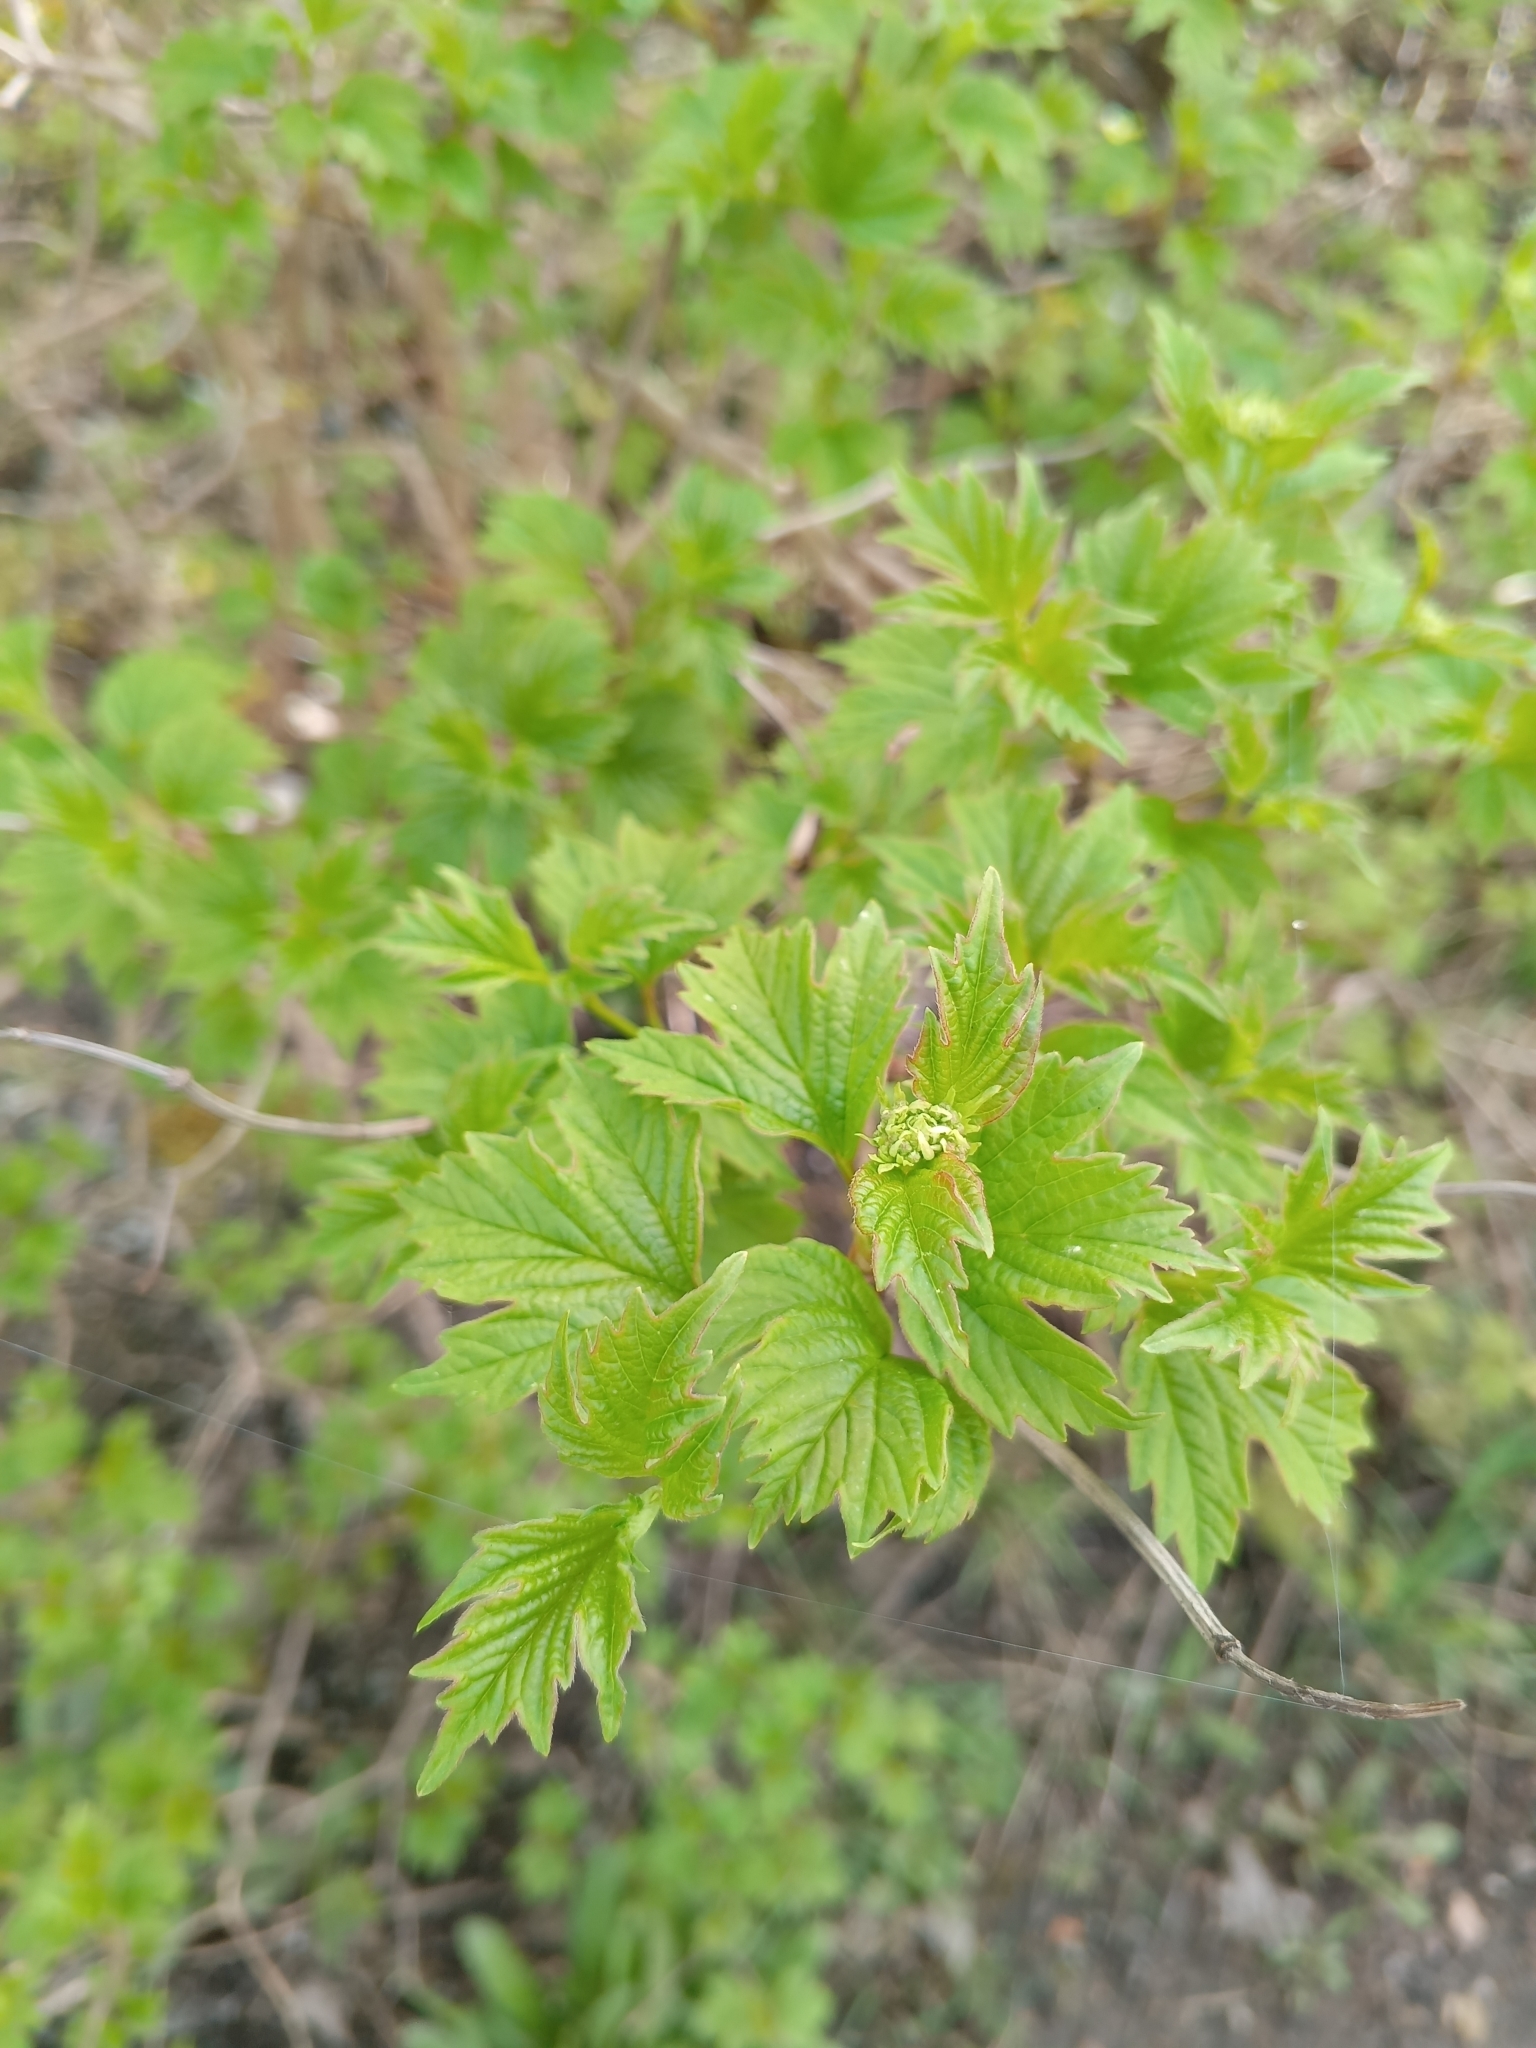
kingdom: Plantae
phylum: Tracheophyta
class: Magnoliopsida
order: Dipsacales
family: Viburnaceae
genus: Viburnum
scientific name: Viburnum opulus
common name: Guelder-rose
